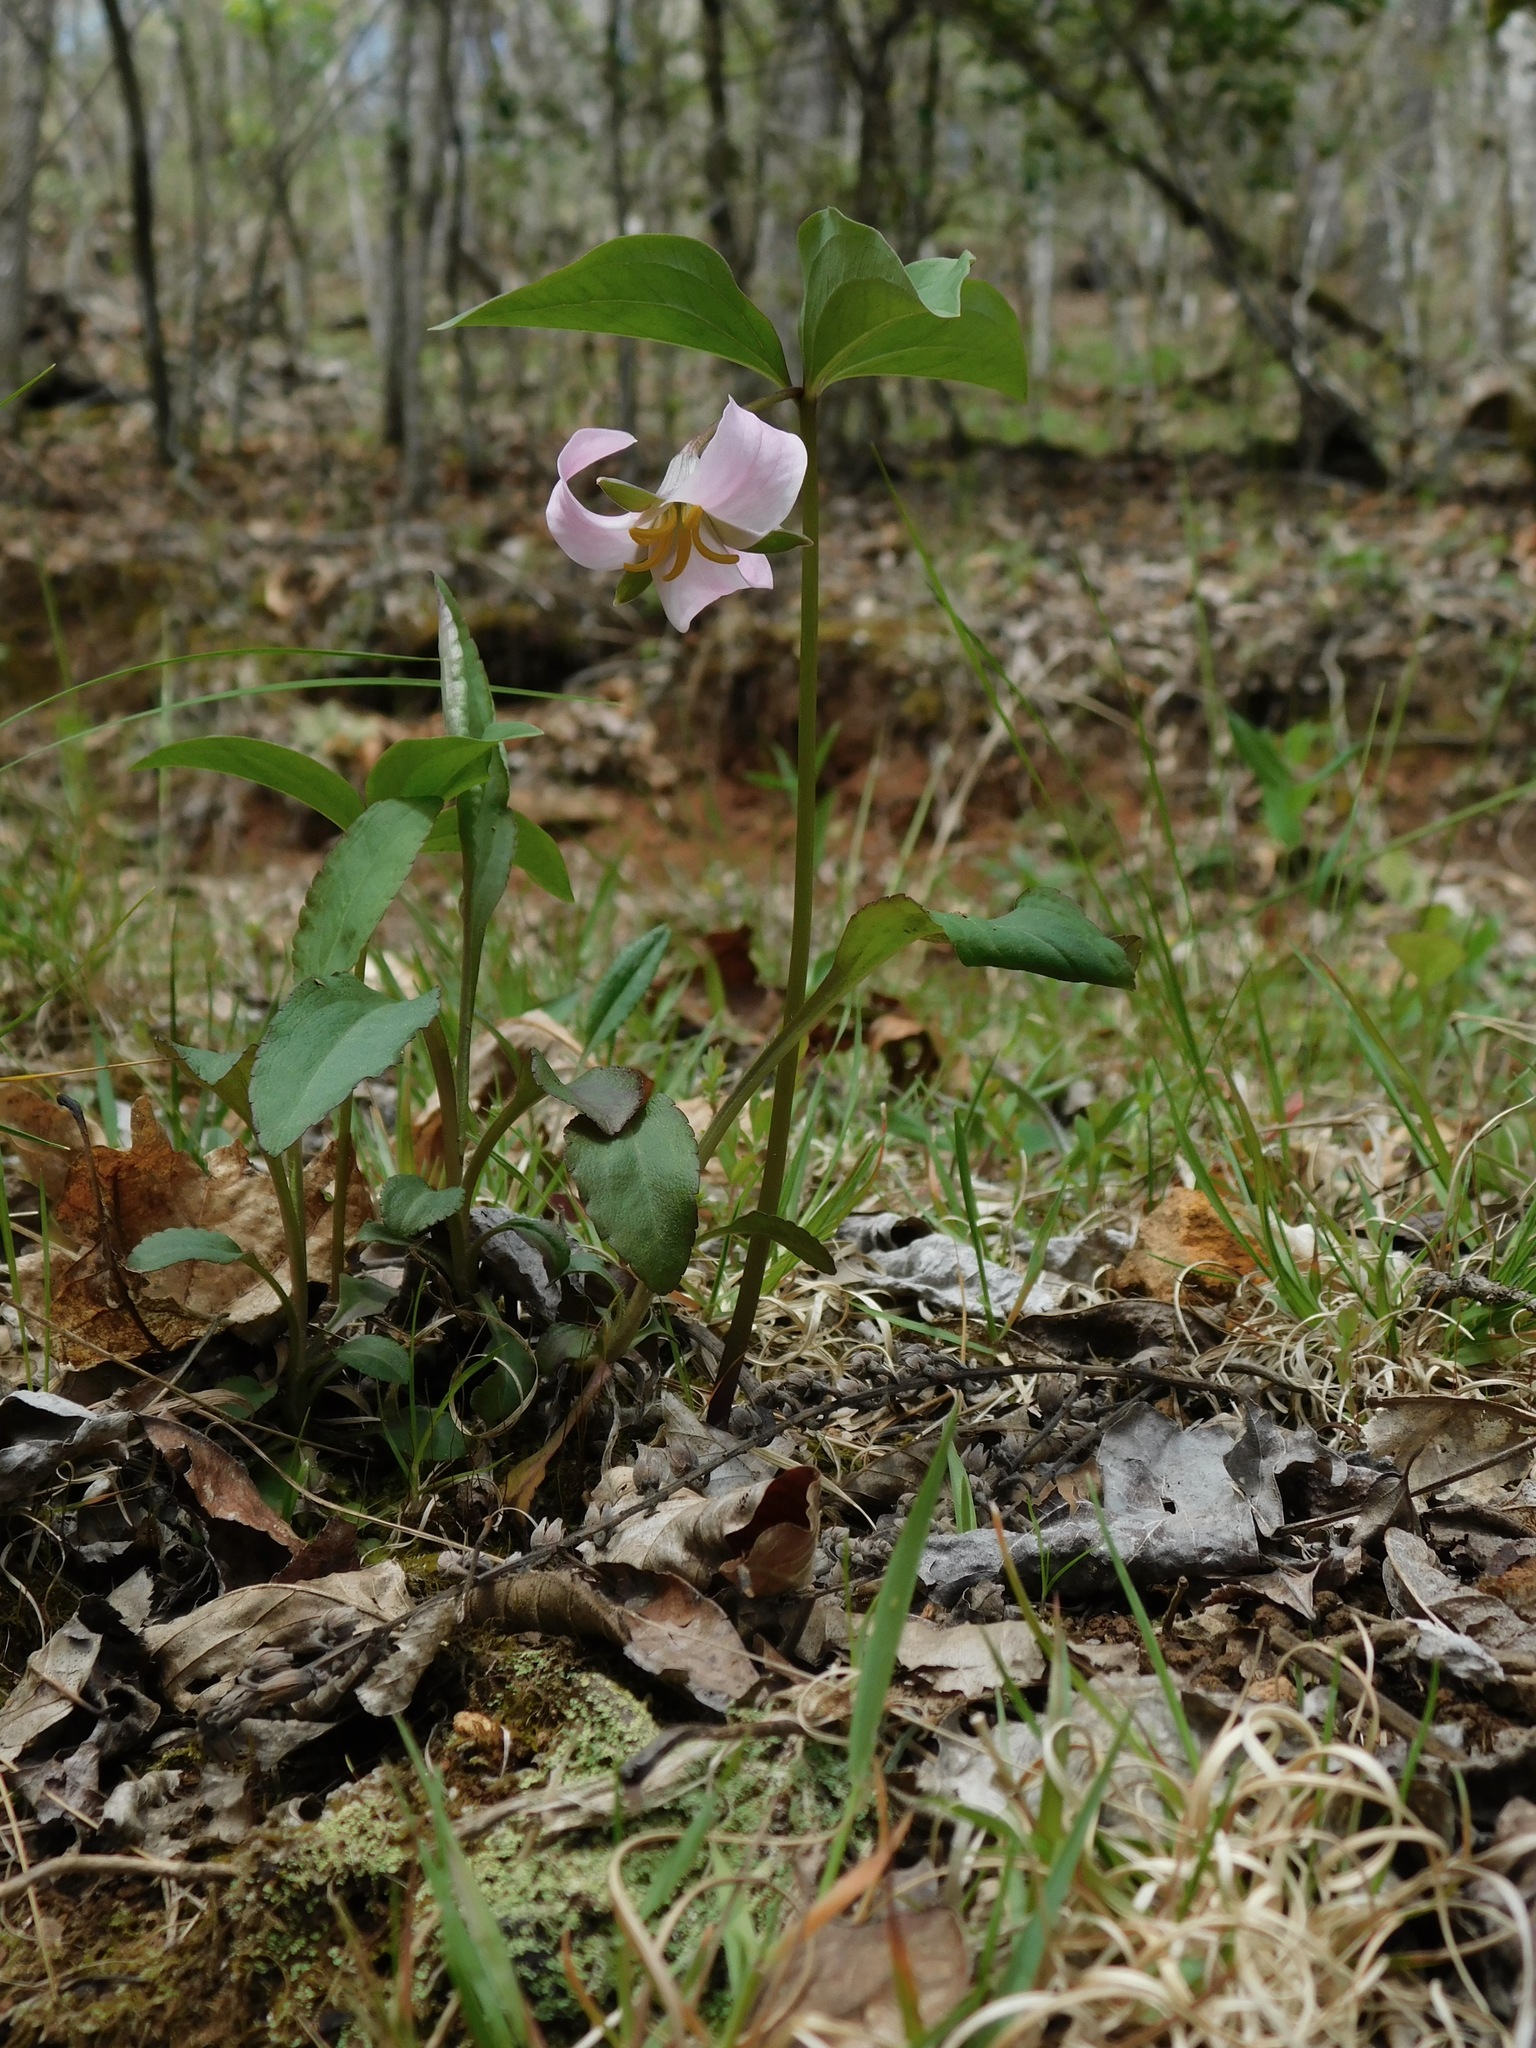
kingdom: Plantae
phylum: Tracheophyta
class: Liliopsida
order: Liliales
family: Melanthiaceae
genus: Trillium
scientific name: Trillium catesbaei
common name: Bashful trillium
